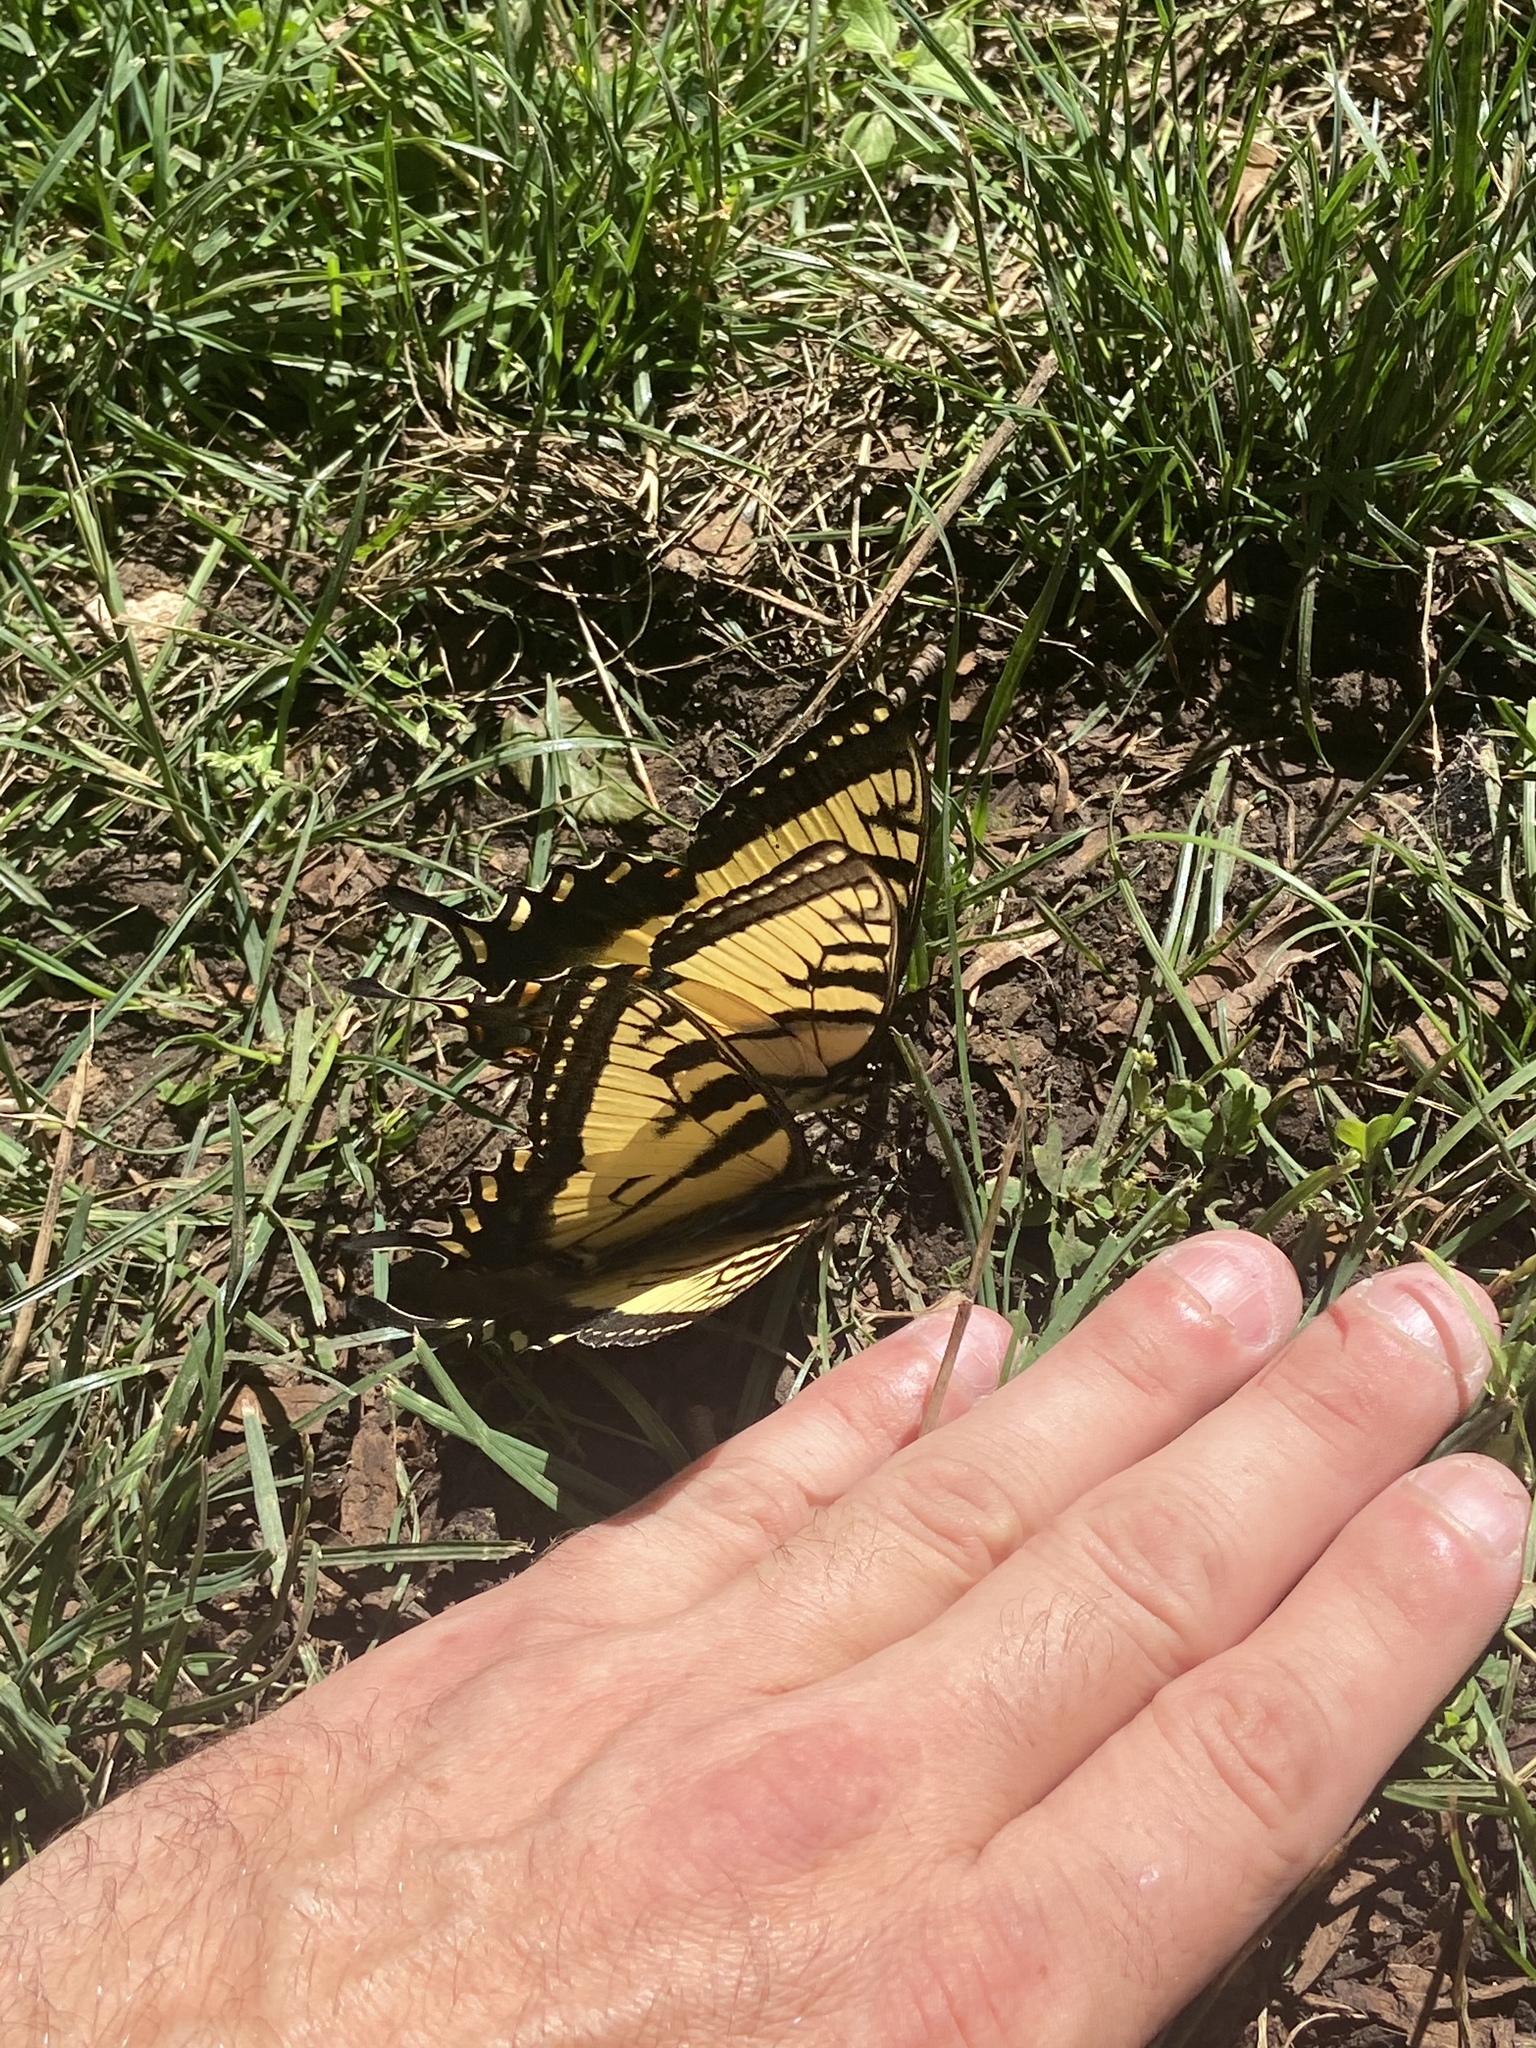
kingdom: Animalia
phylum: Arthropoda
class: Insecta
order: Lepidoptera
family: Papilionidae
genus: Papilio
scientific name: Papilio
